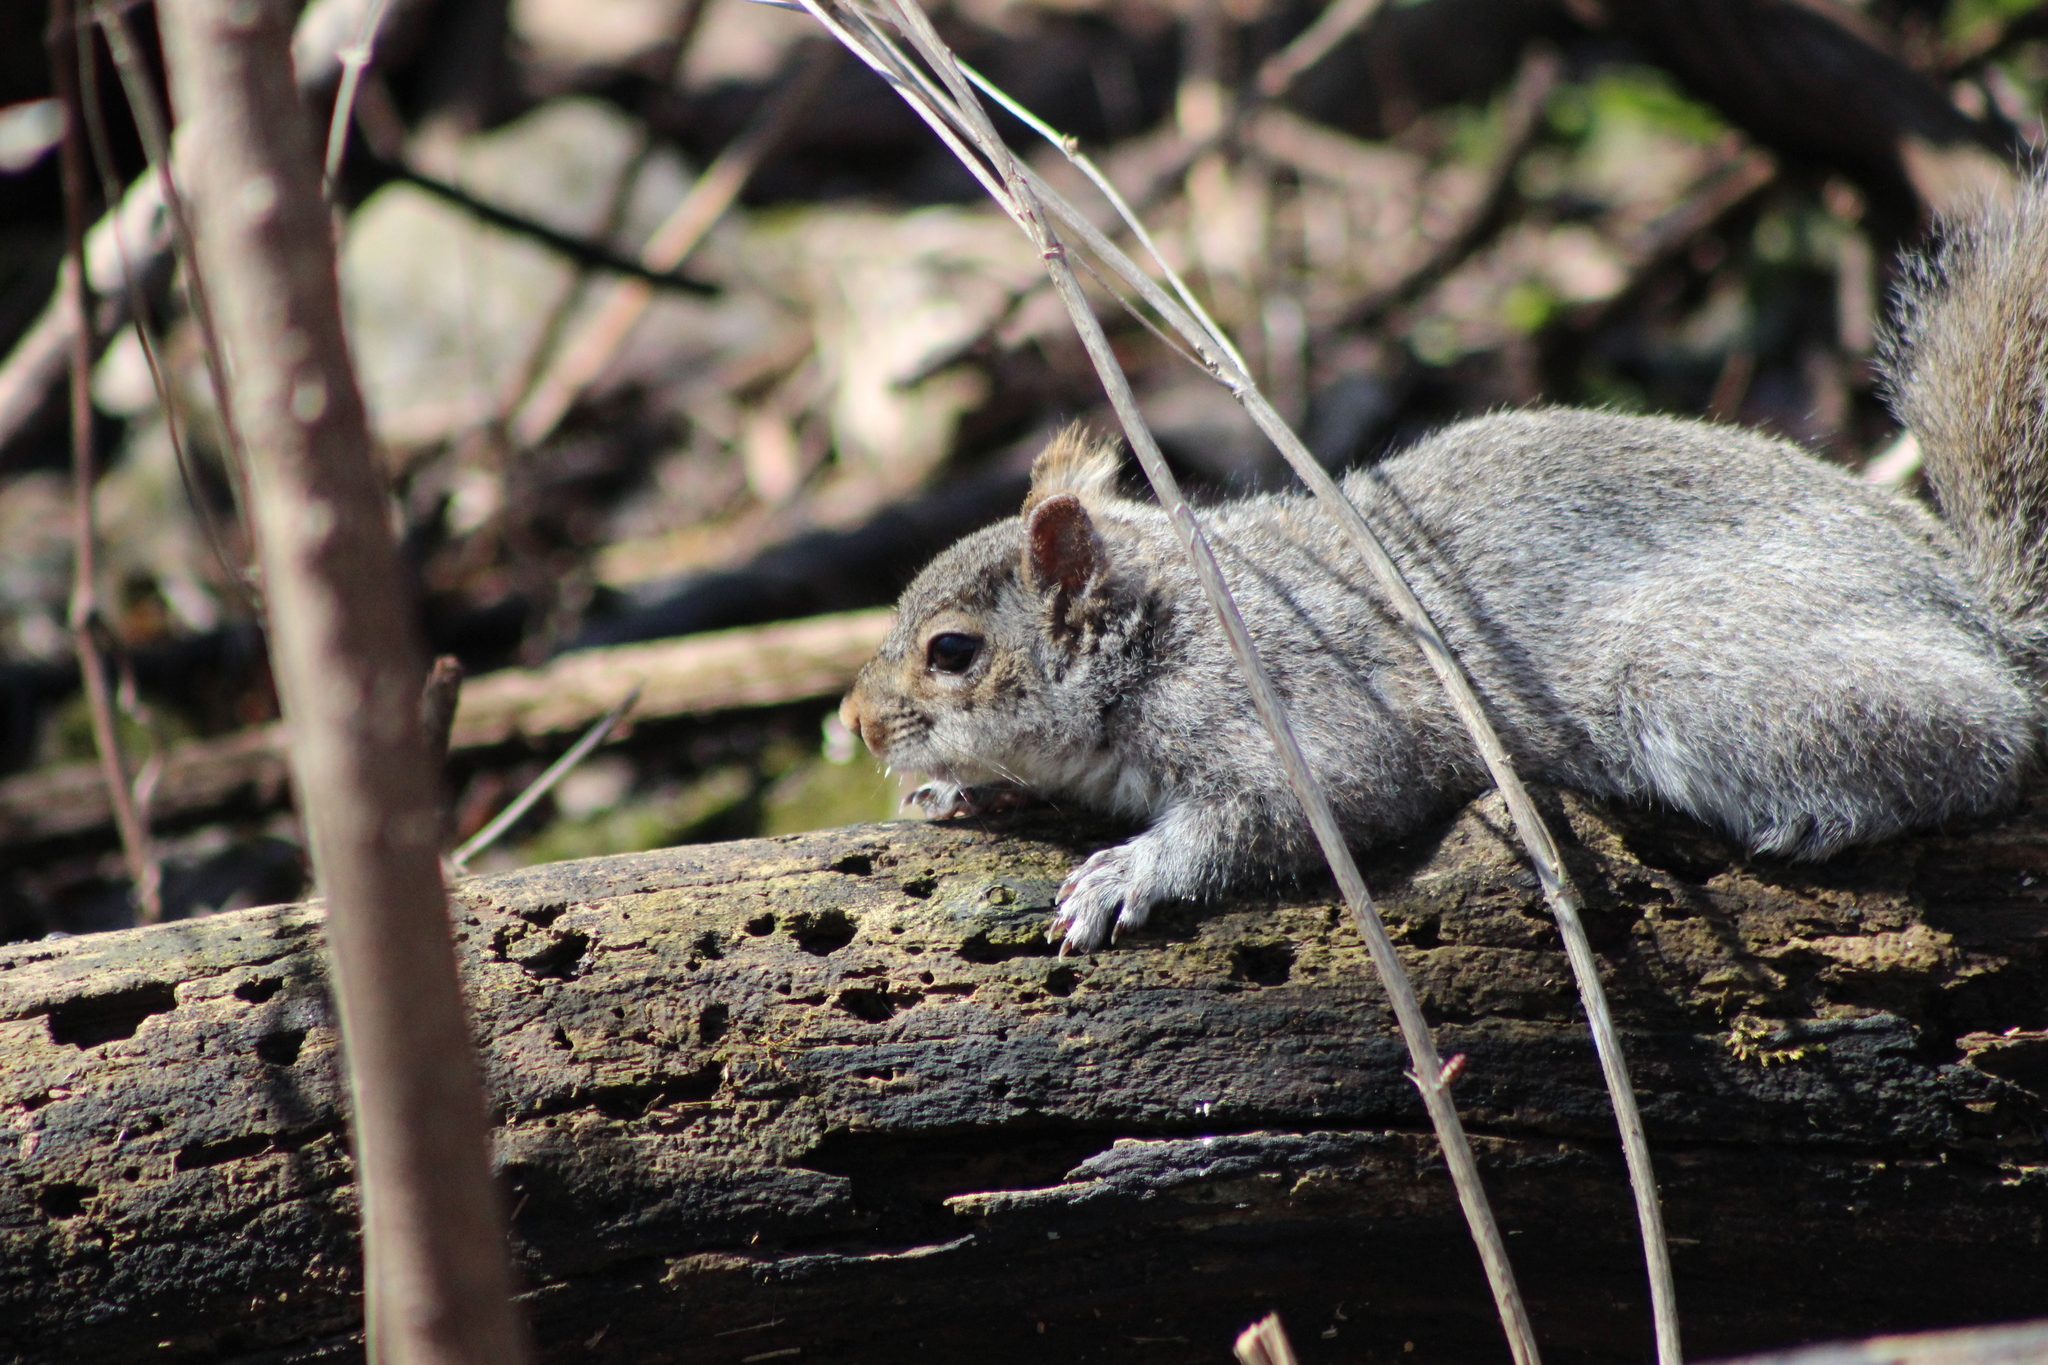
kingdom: Animalia
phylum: Chordata
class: Mammalia
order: Rodentia
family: Sciuridae
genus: Sciurus
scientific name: Sciurus carolinensis
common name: Eastern gray squirrel
